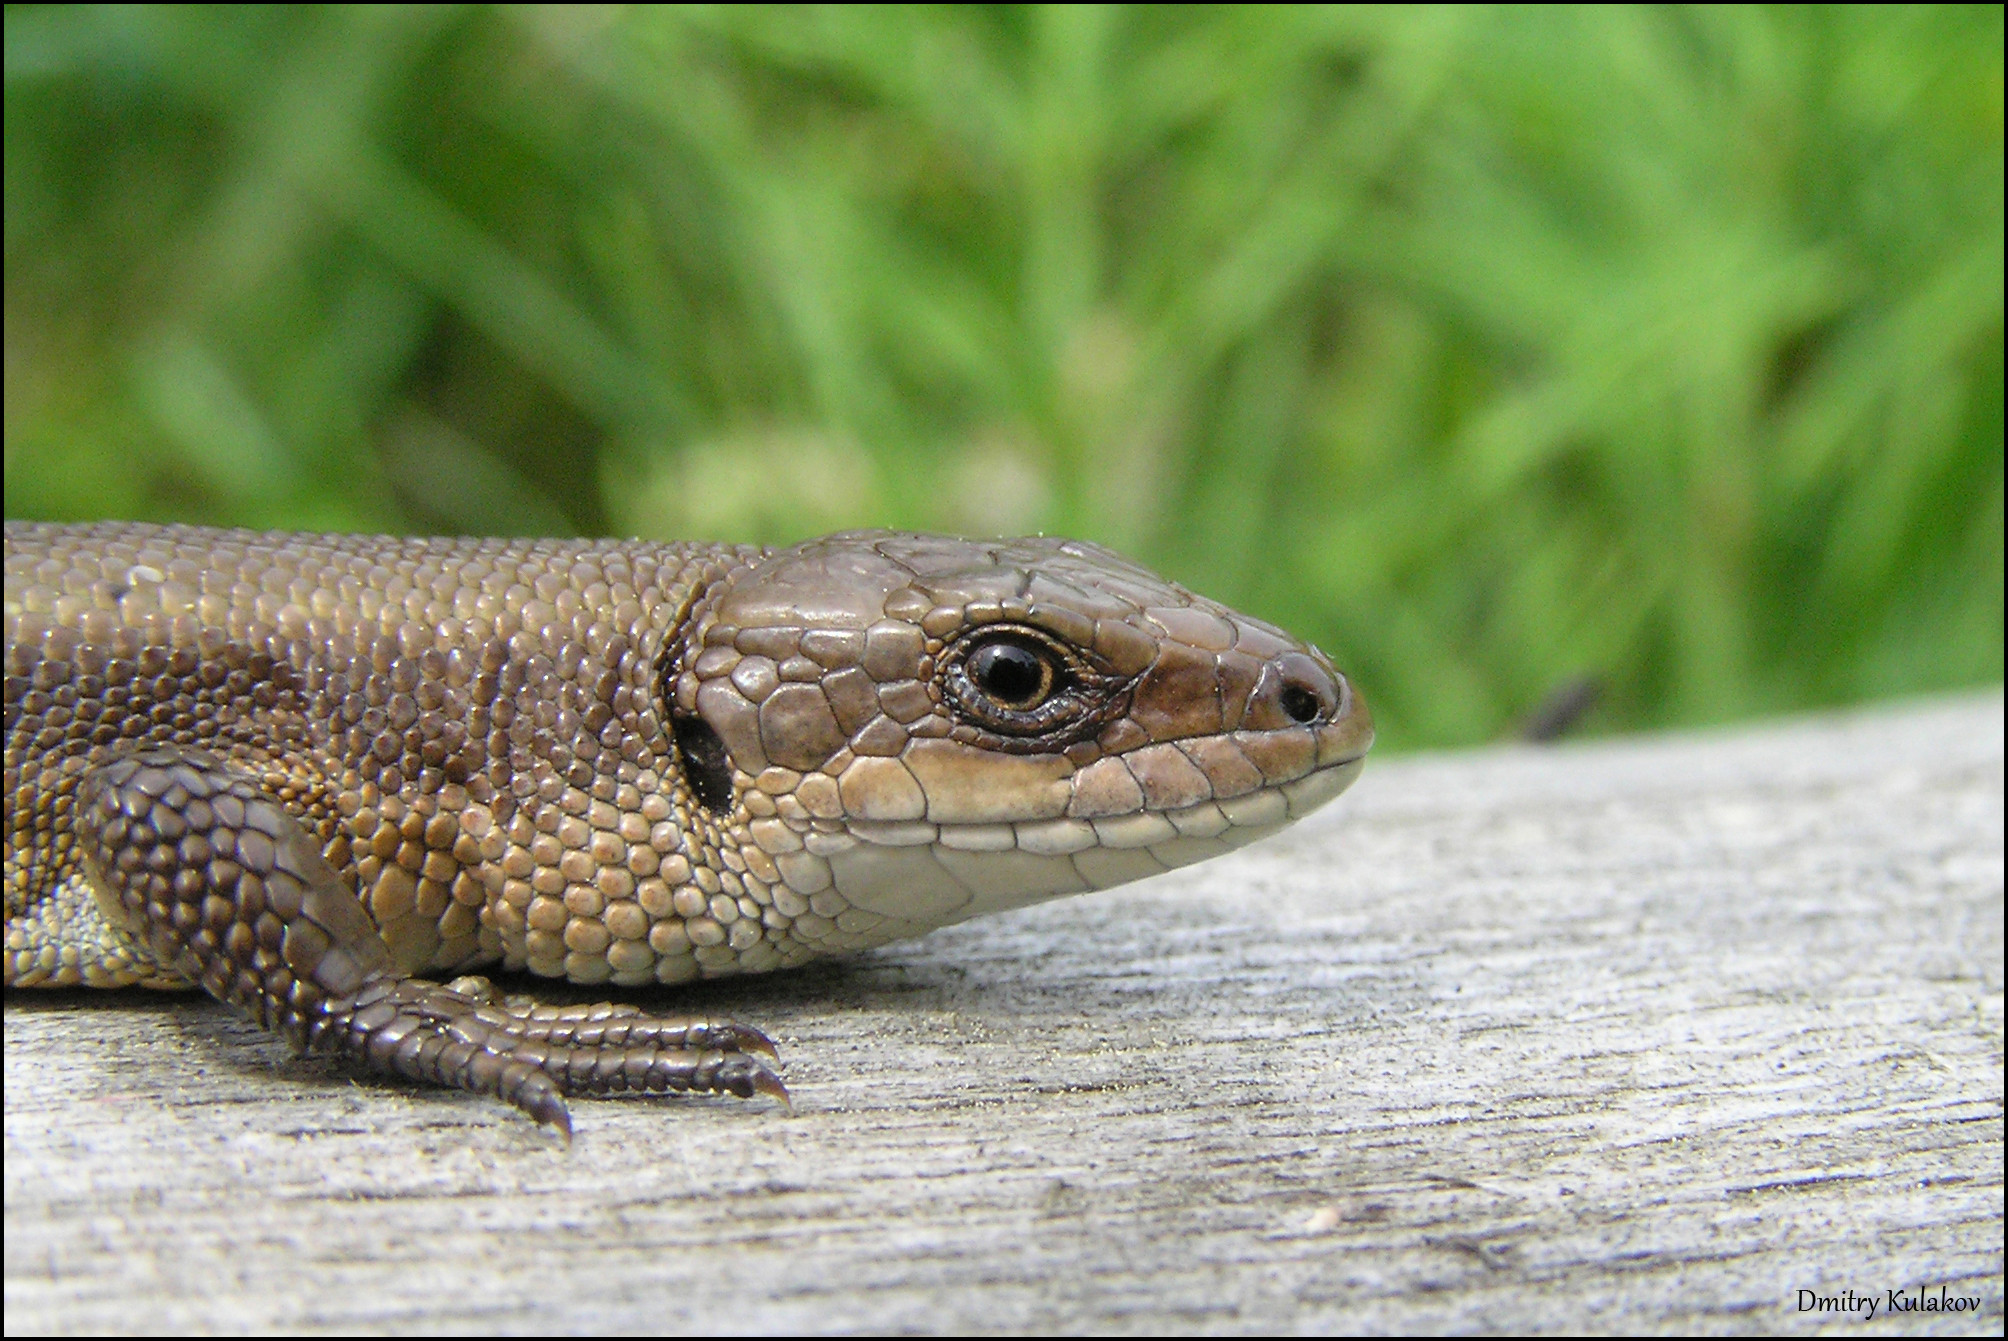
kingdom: Animalia
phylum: Chordata
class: Squamata
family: Lacertidae
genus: Zootoca
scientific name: Zootoca vivipara
